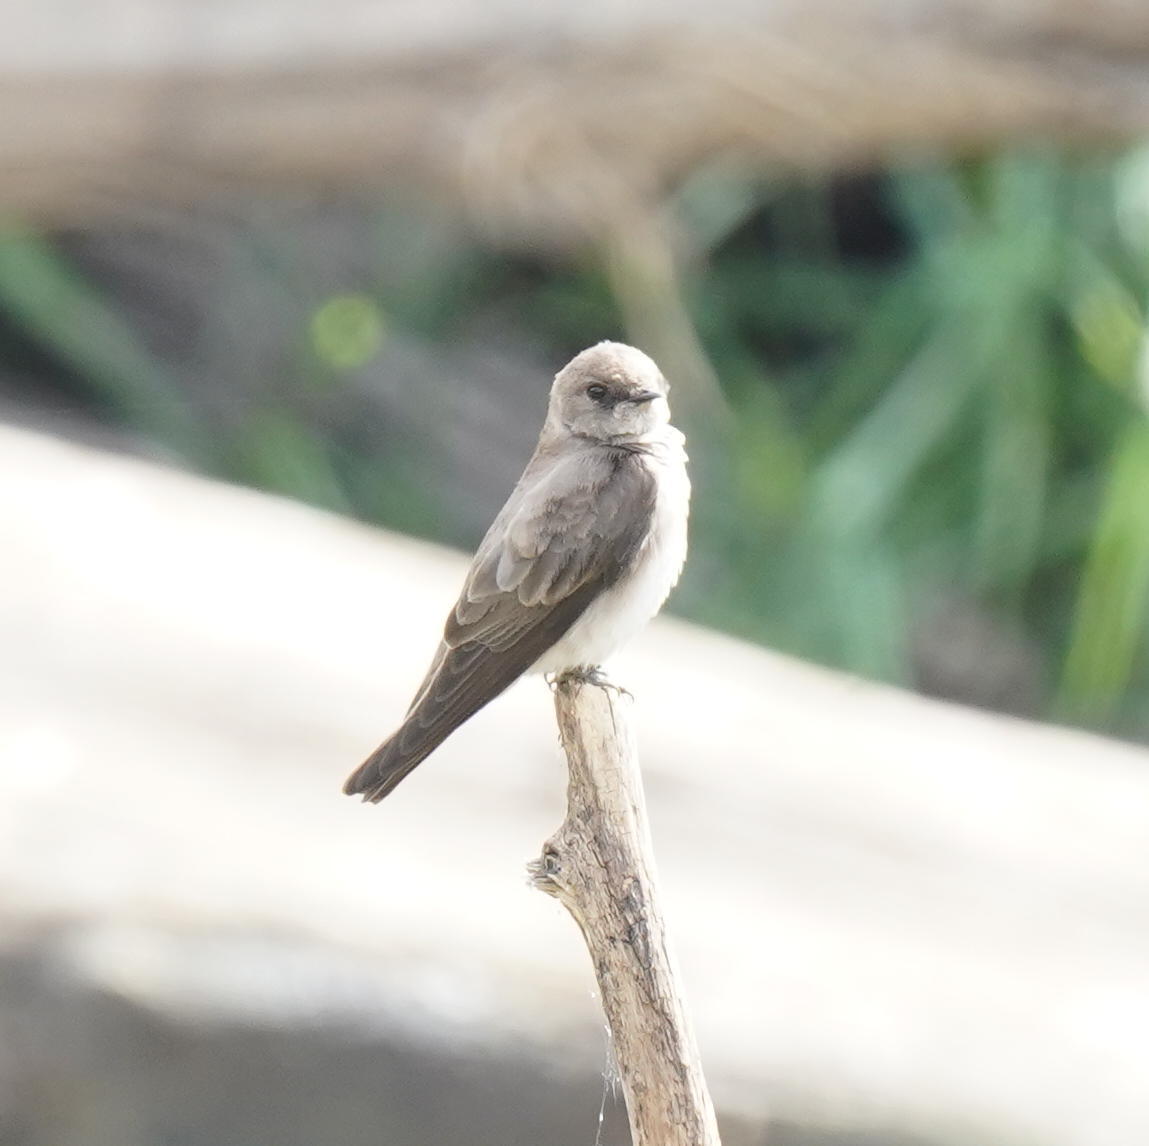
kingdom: Animalia
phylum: Chordata
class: Aves
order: Passeriformes
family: Hirundinidae
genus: Stelgidopteryx
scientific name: Stelgidopteryx serripennis
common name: Northern rough-winged swallow
